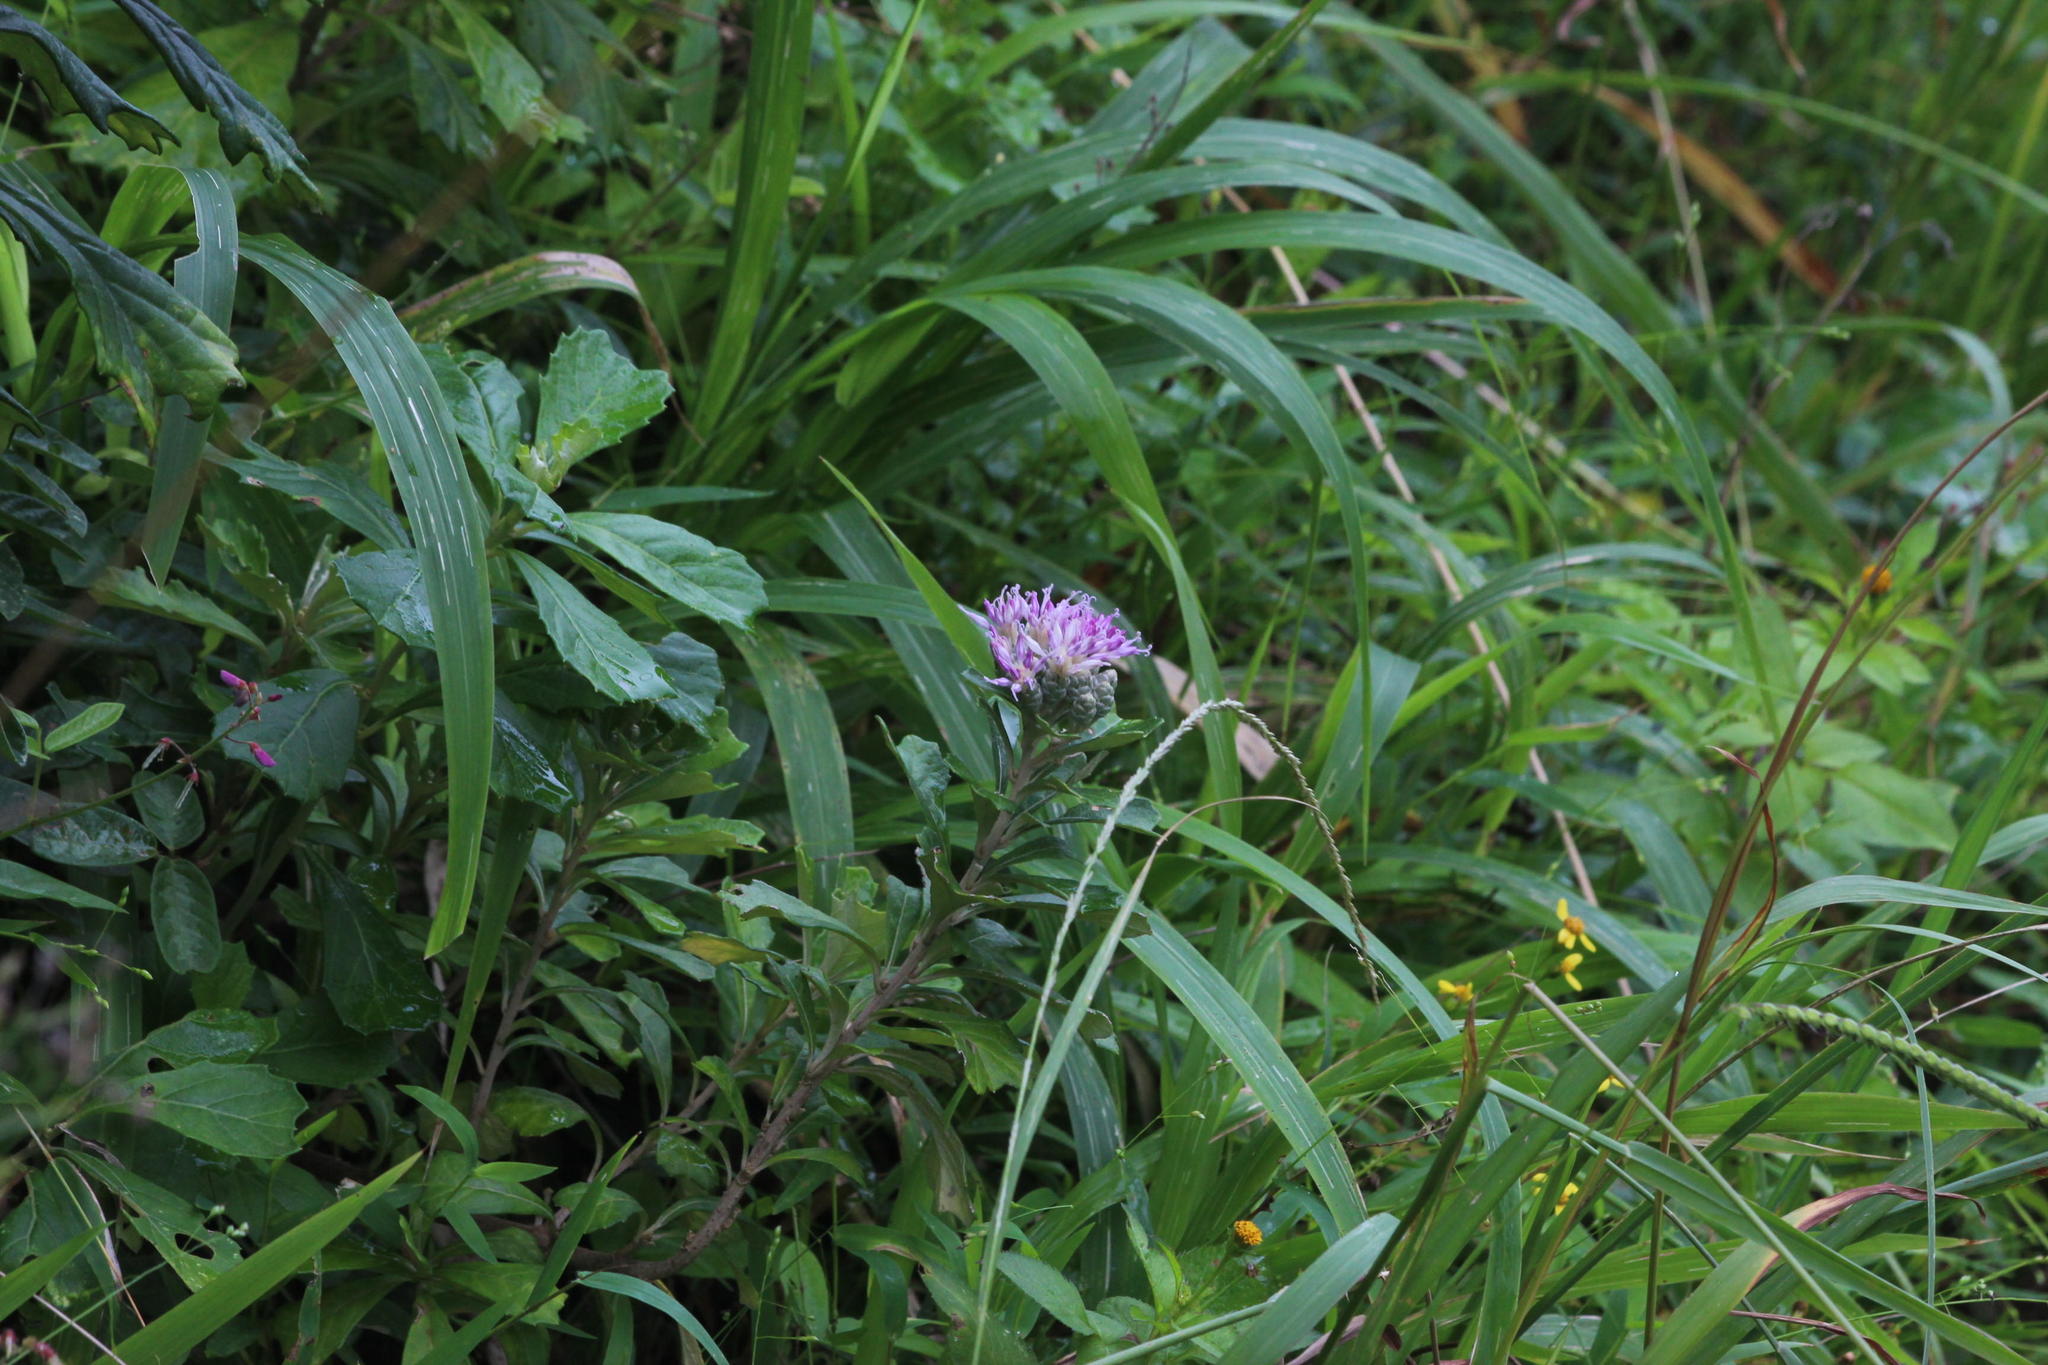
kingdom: Plantae
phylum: Tracheophyta
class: Magnoliopsida
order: Asterales
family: Asteraceae
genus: Gymnanthemum
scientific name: Gymnanthemum corymbosum
